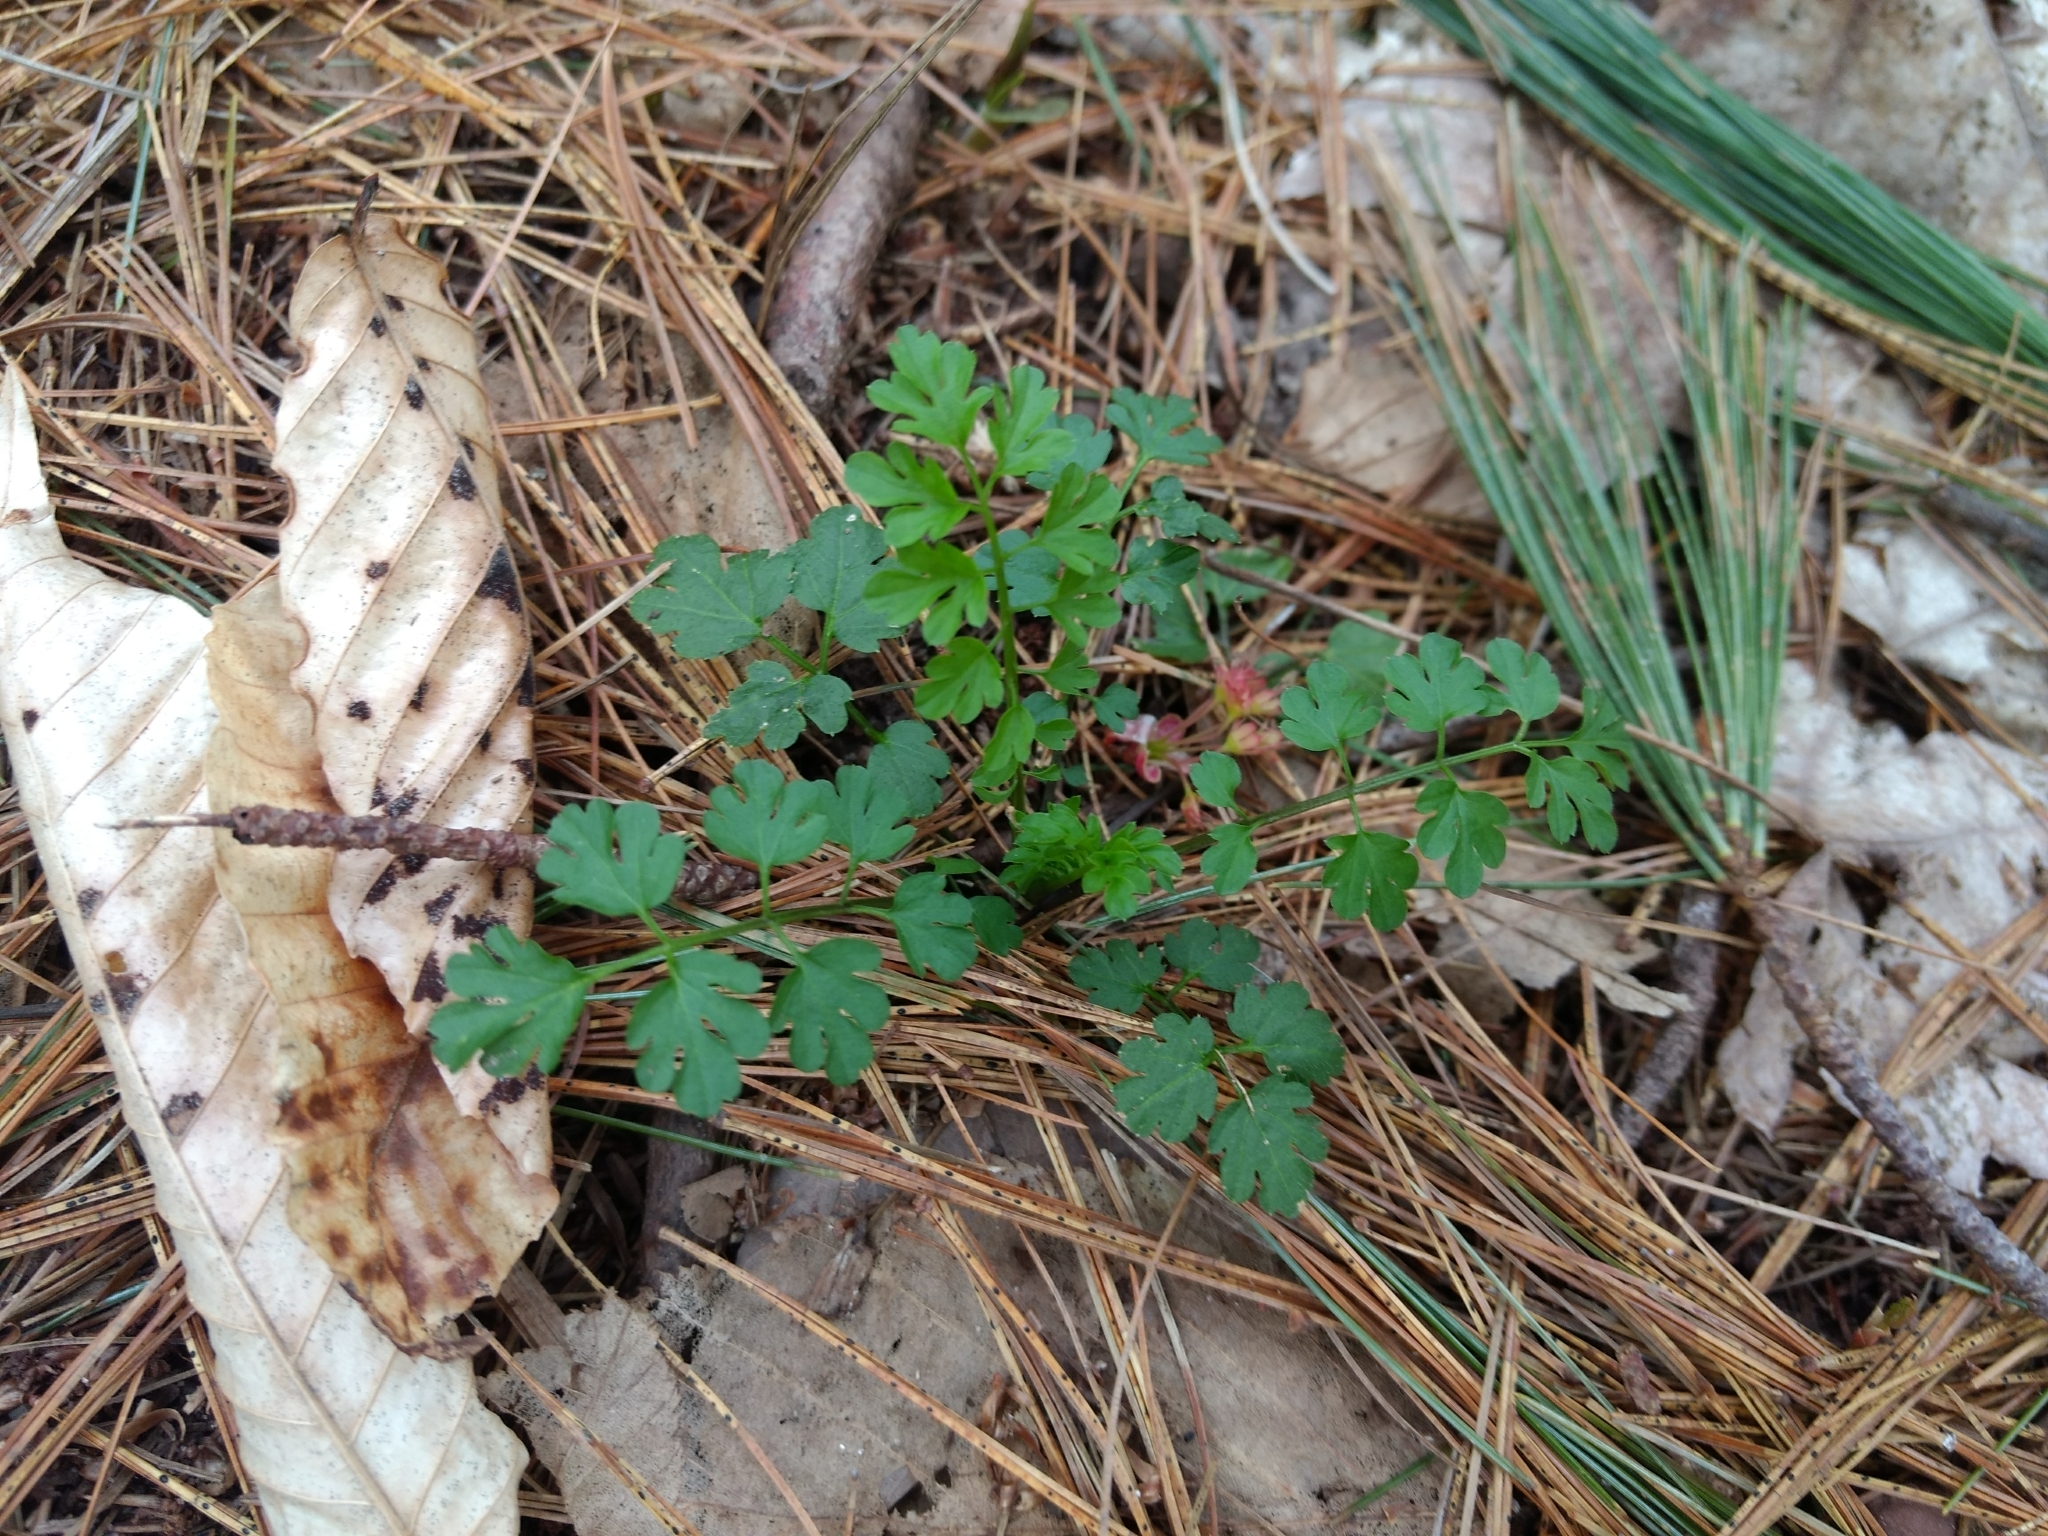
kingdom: Plantae
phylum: Tracheophyta
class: Magnoliopsida
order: Brassicales
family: Brassicaceae
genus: Cardamine
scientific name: Cardamine impatiens
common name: Narrow-leaved bitter-cress
